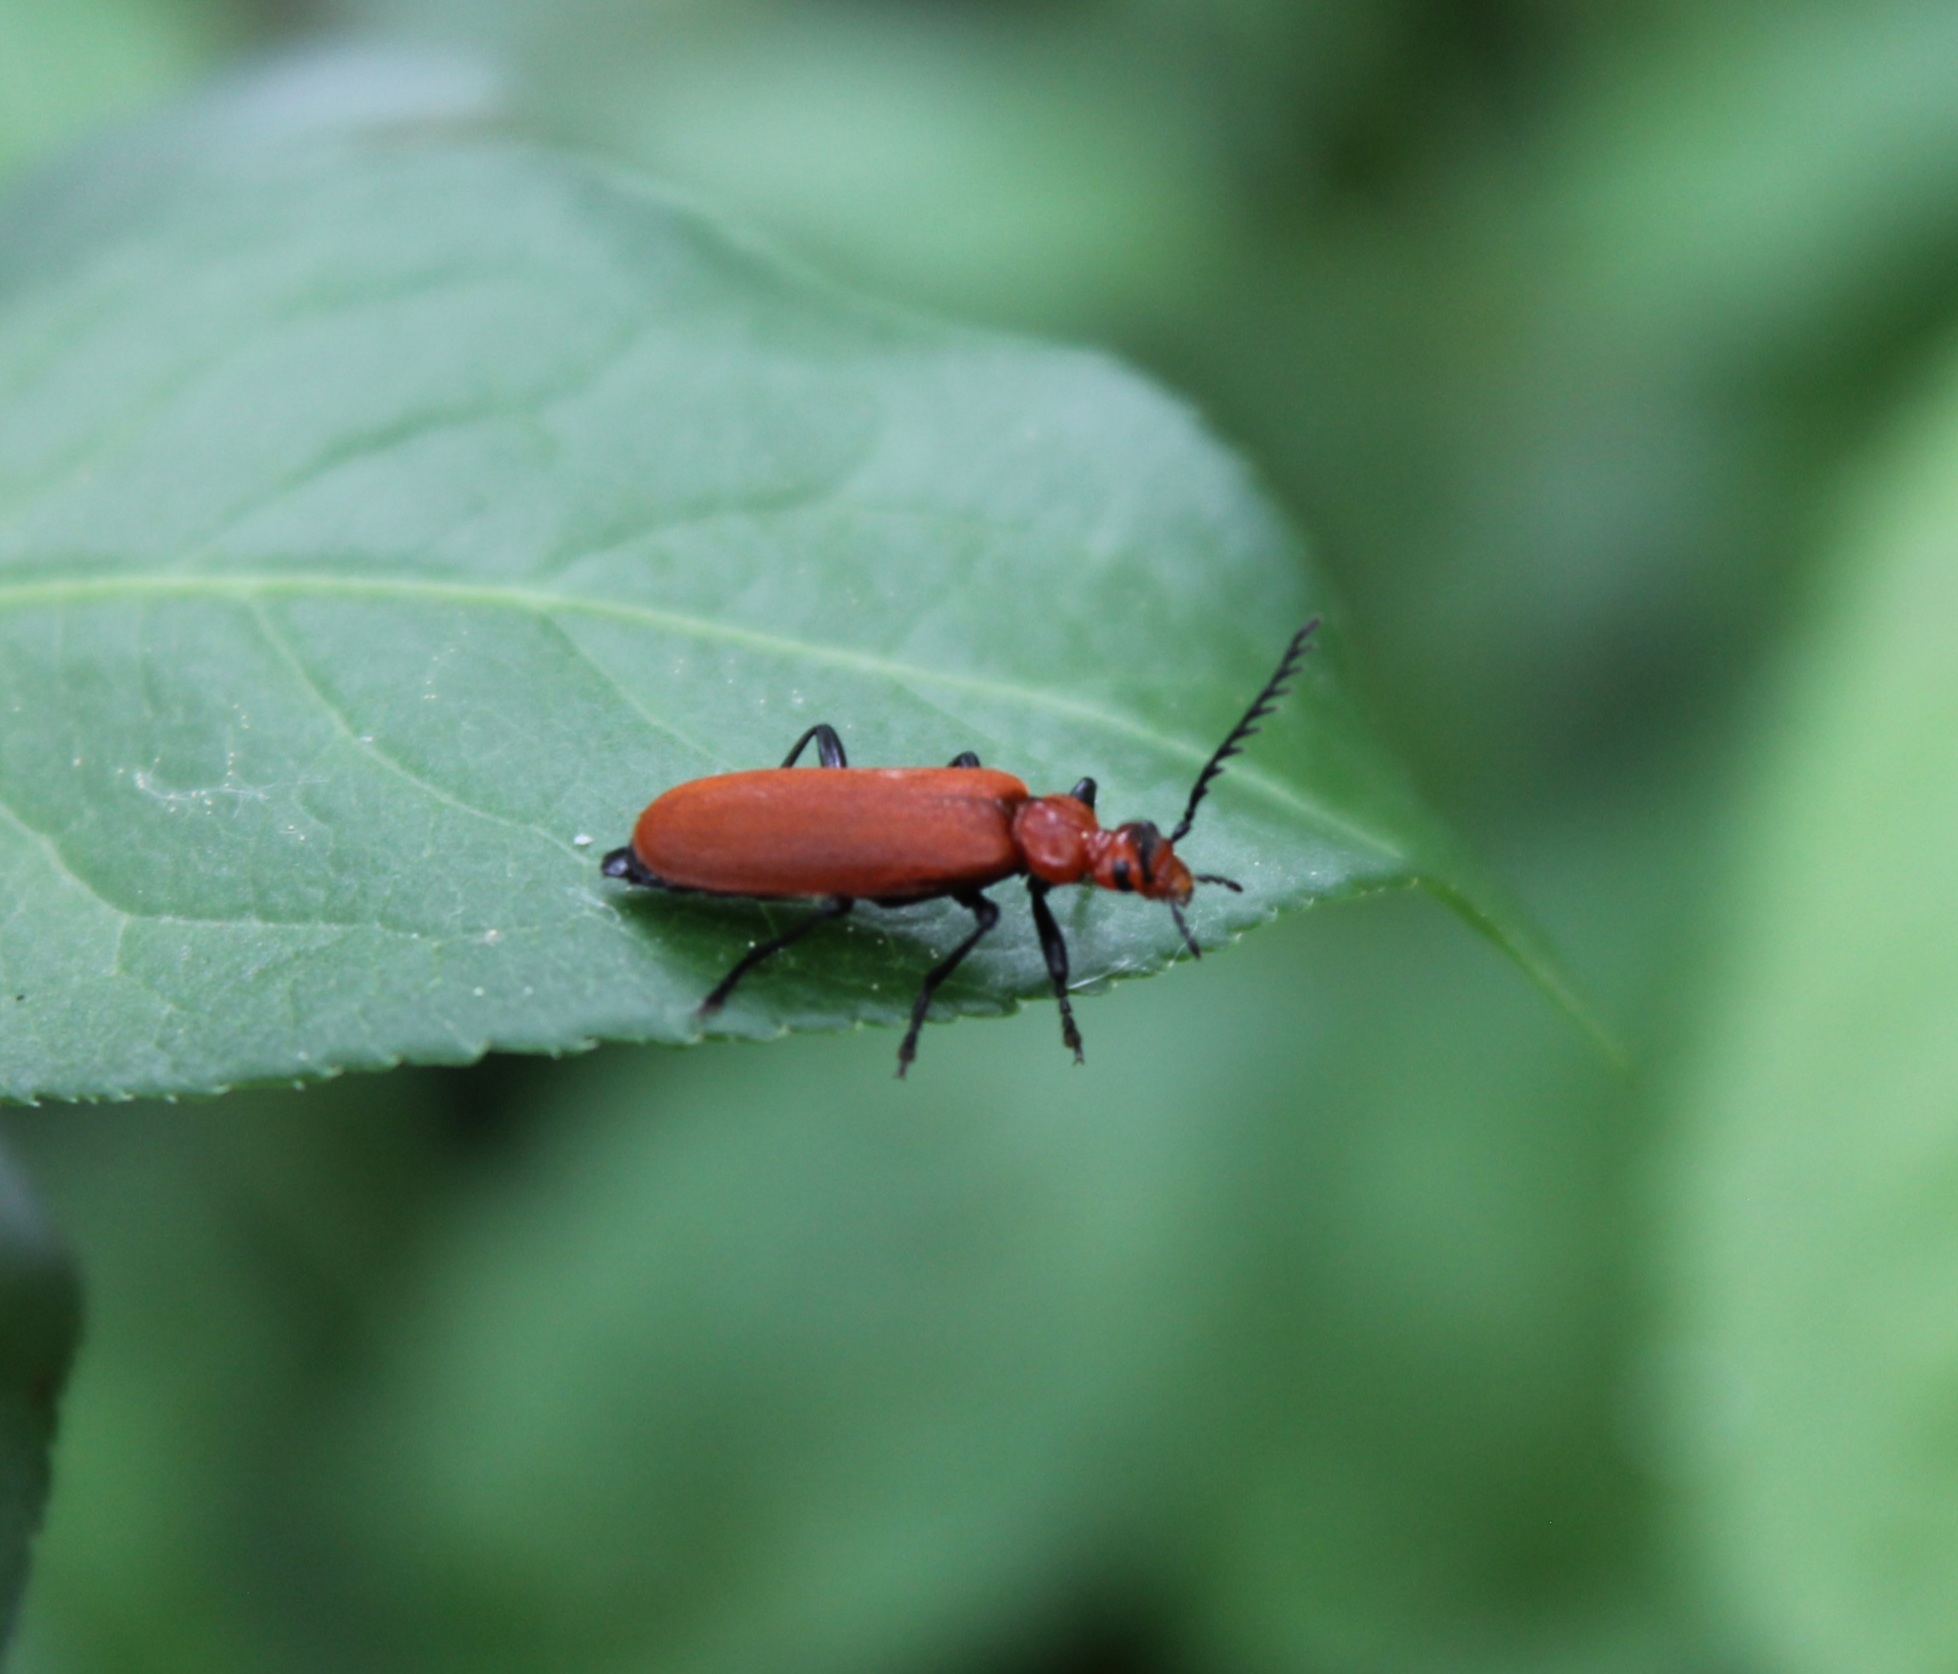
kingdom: Animalia
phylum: Arthropoda
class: Insecta
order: Coleoptera
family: Pyrochroidae
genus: Pyrochroa
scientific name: Pyrochroa serraticornis
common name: Red-headed cardinal beetle
